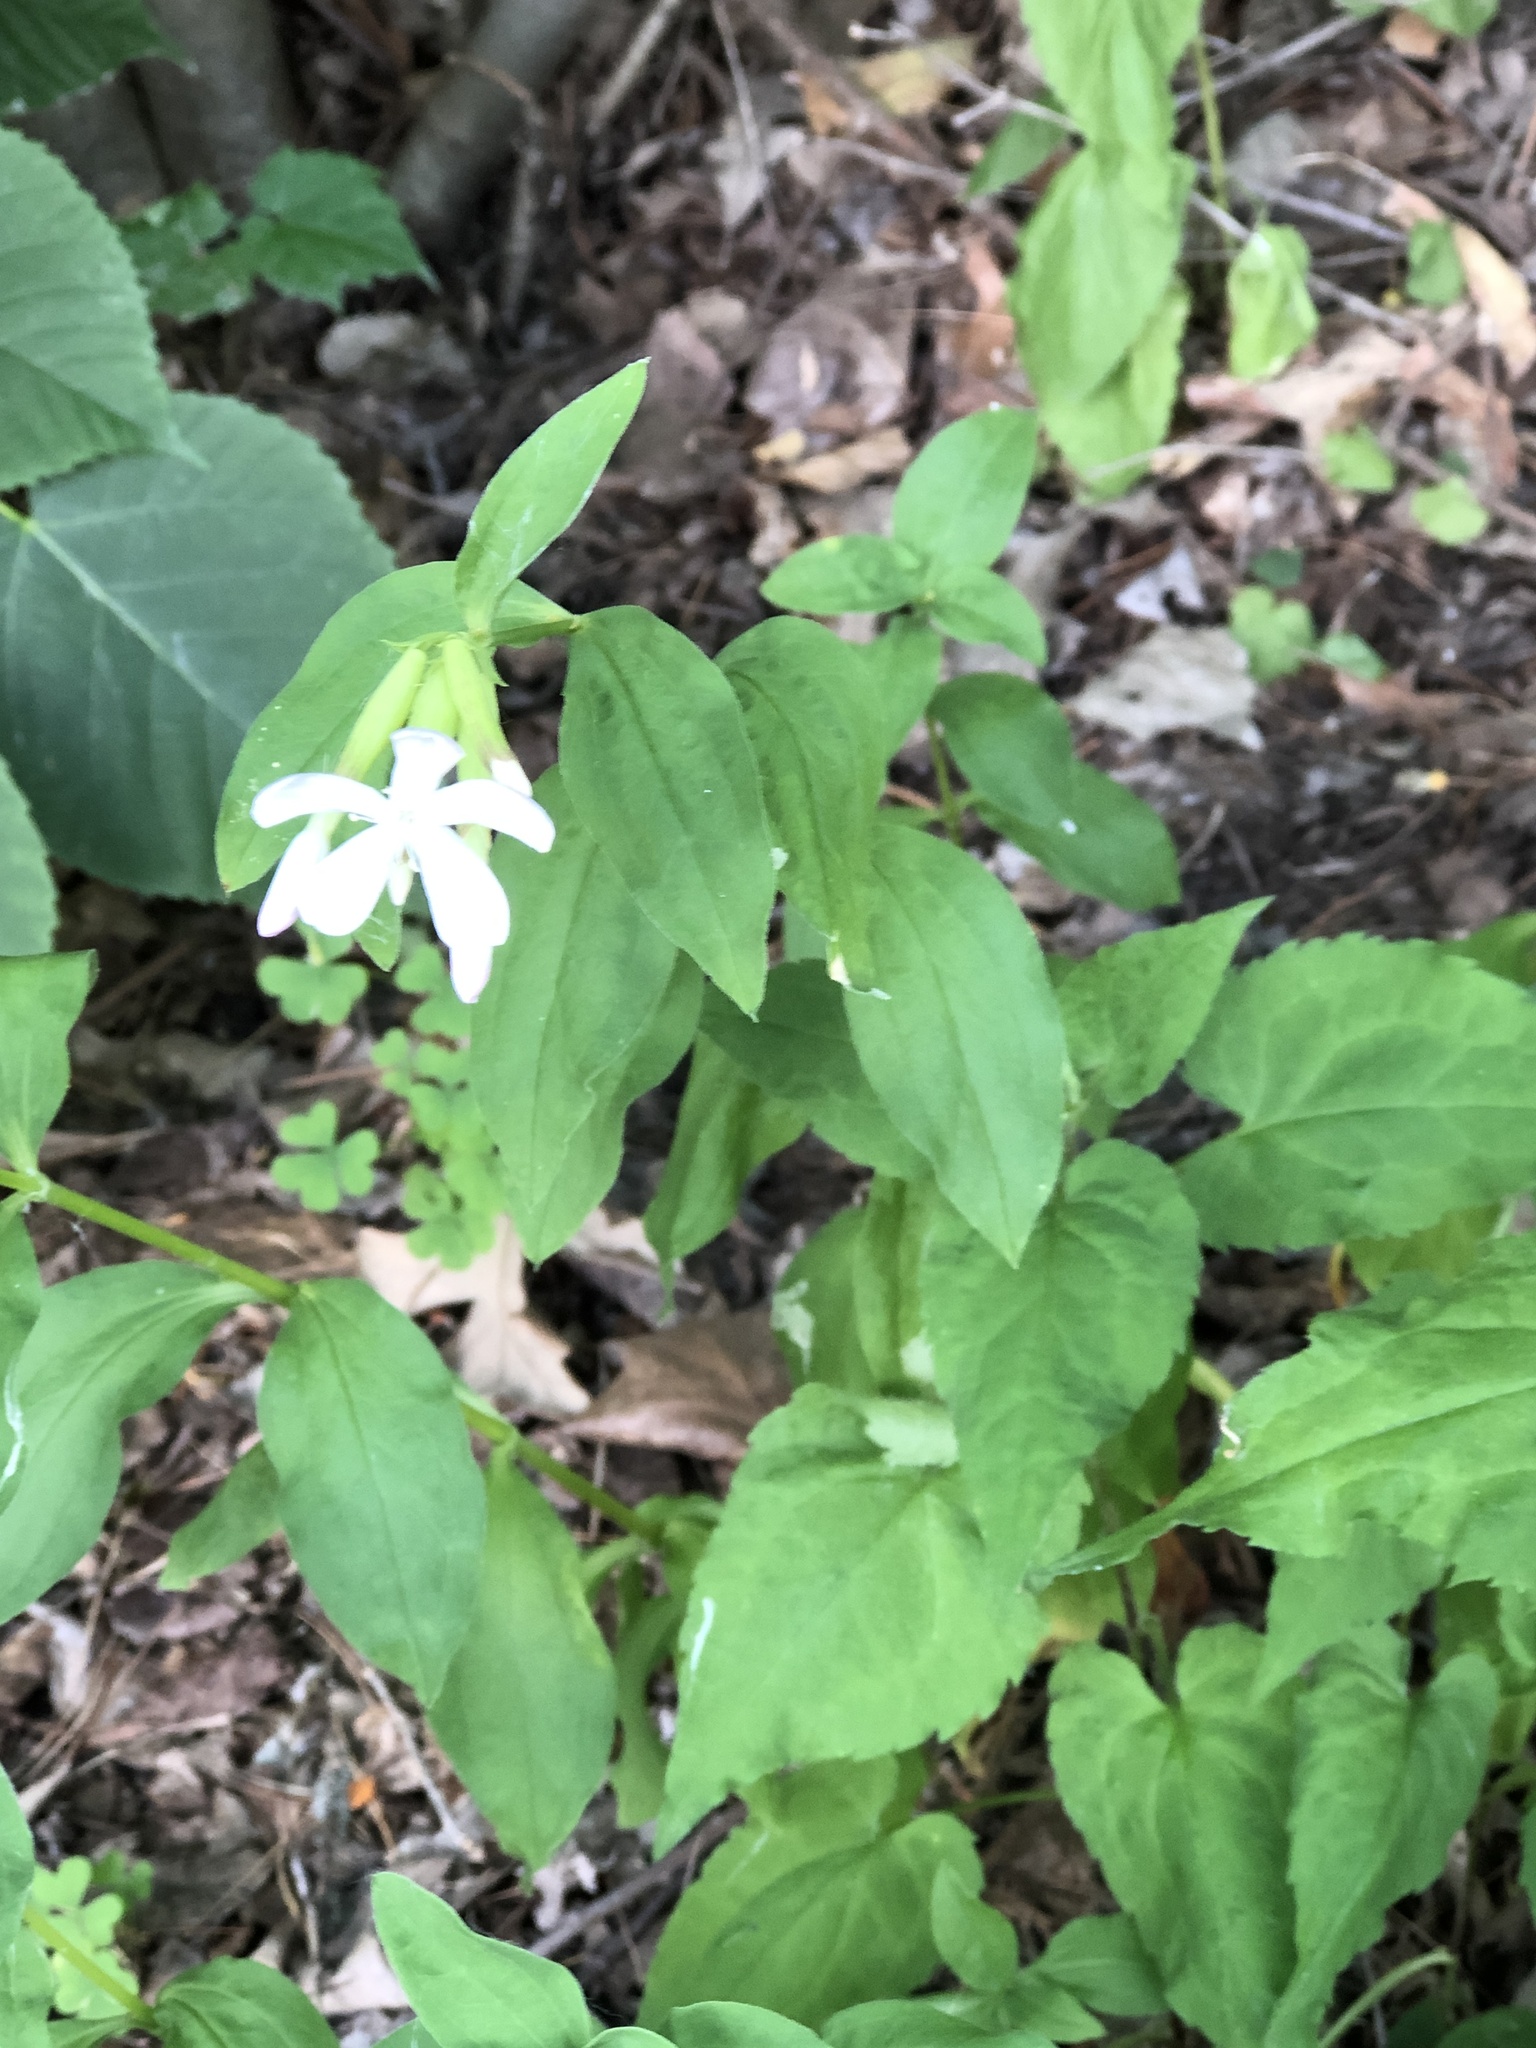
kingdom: Plantae
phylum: Tracheophyta
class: Magnoliopsida
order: Caryophyllales
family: Caryophyllaceae
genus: Saponaria
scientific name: Saponaria officinalis
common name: Soapwort
